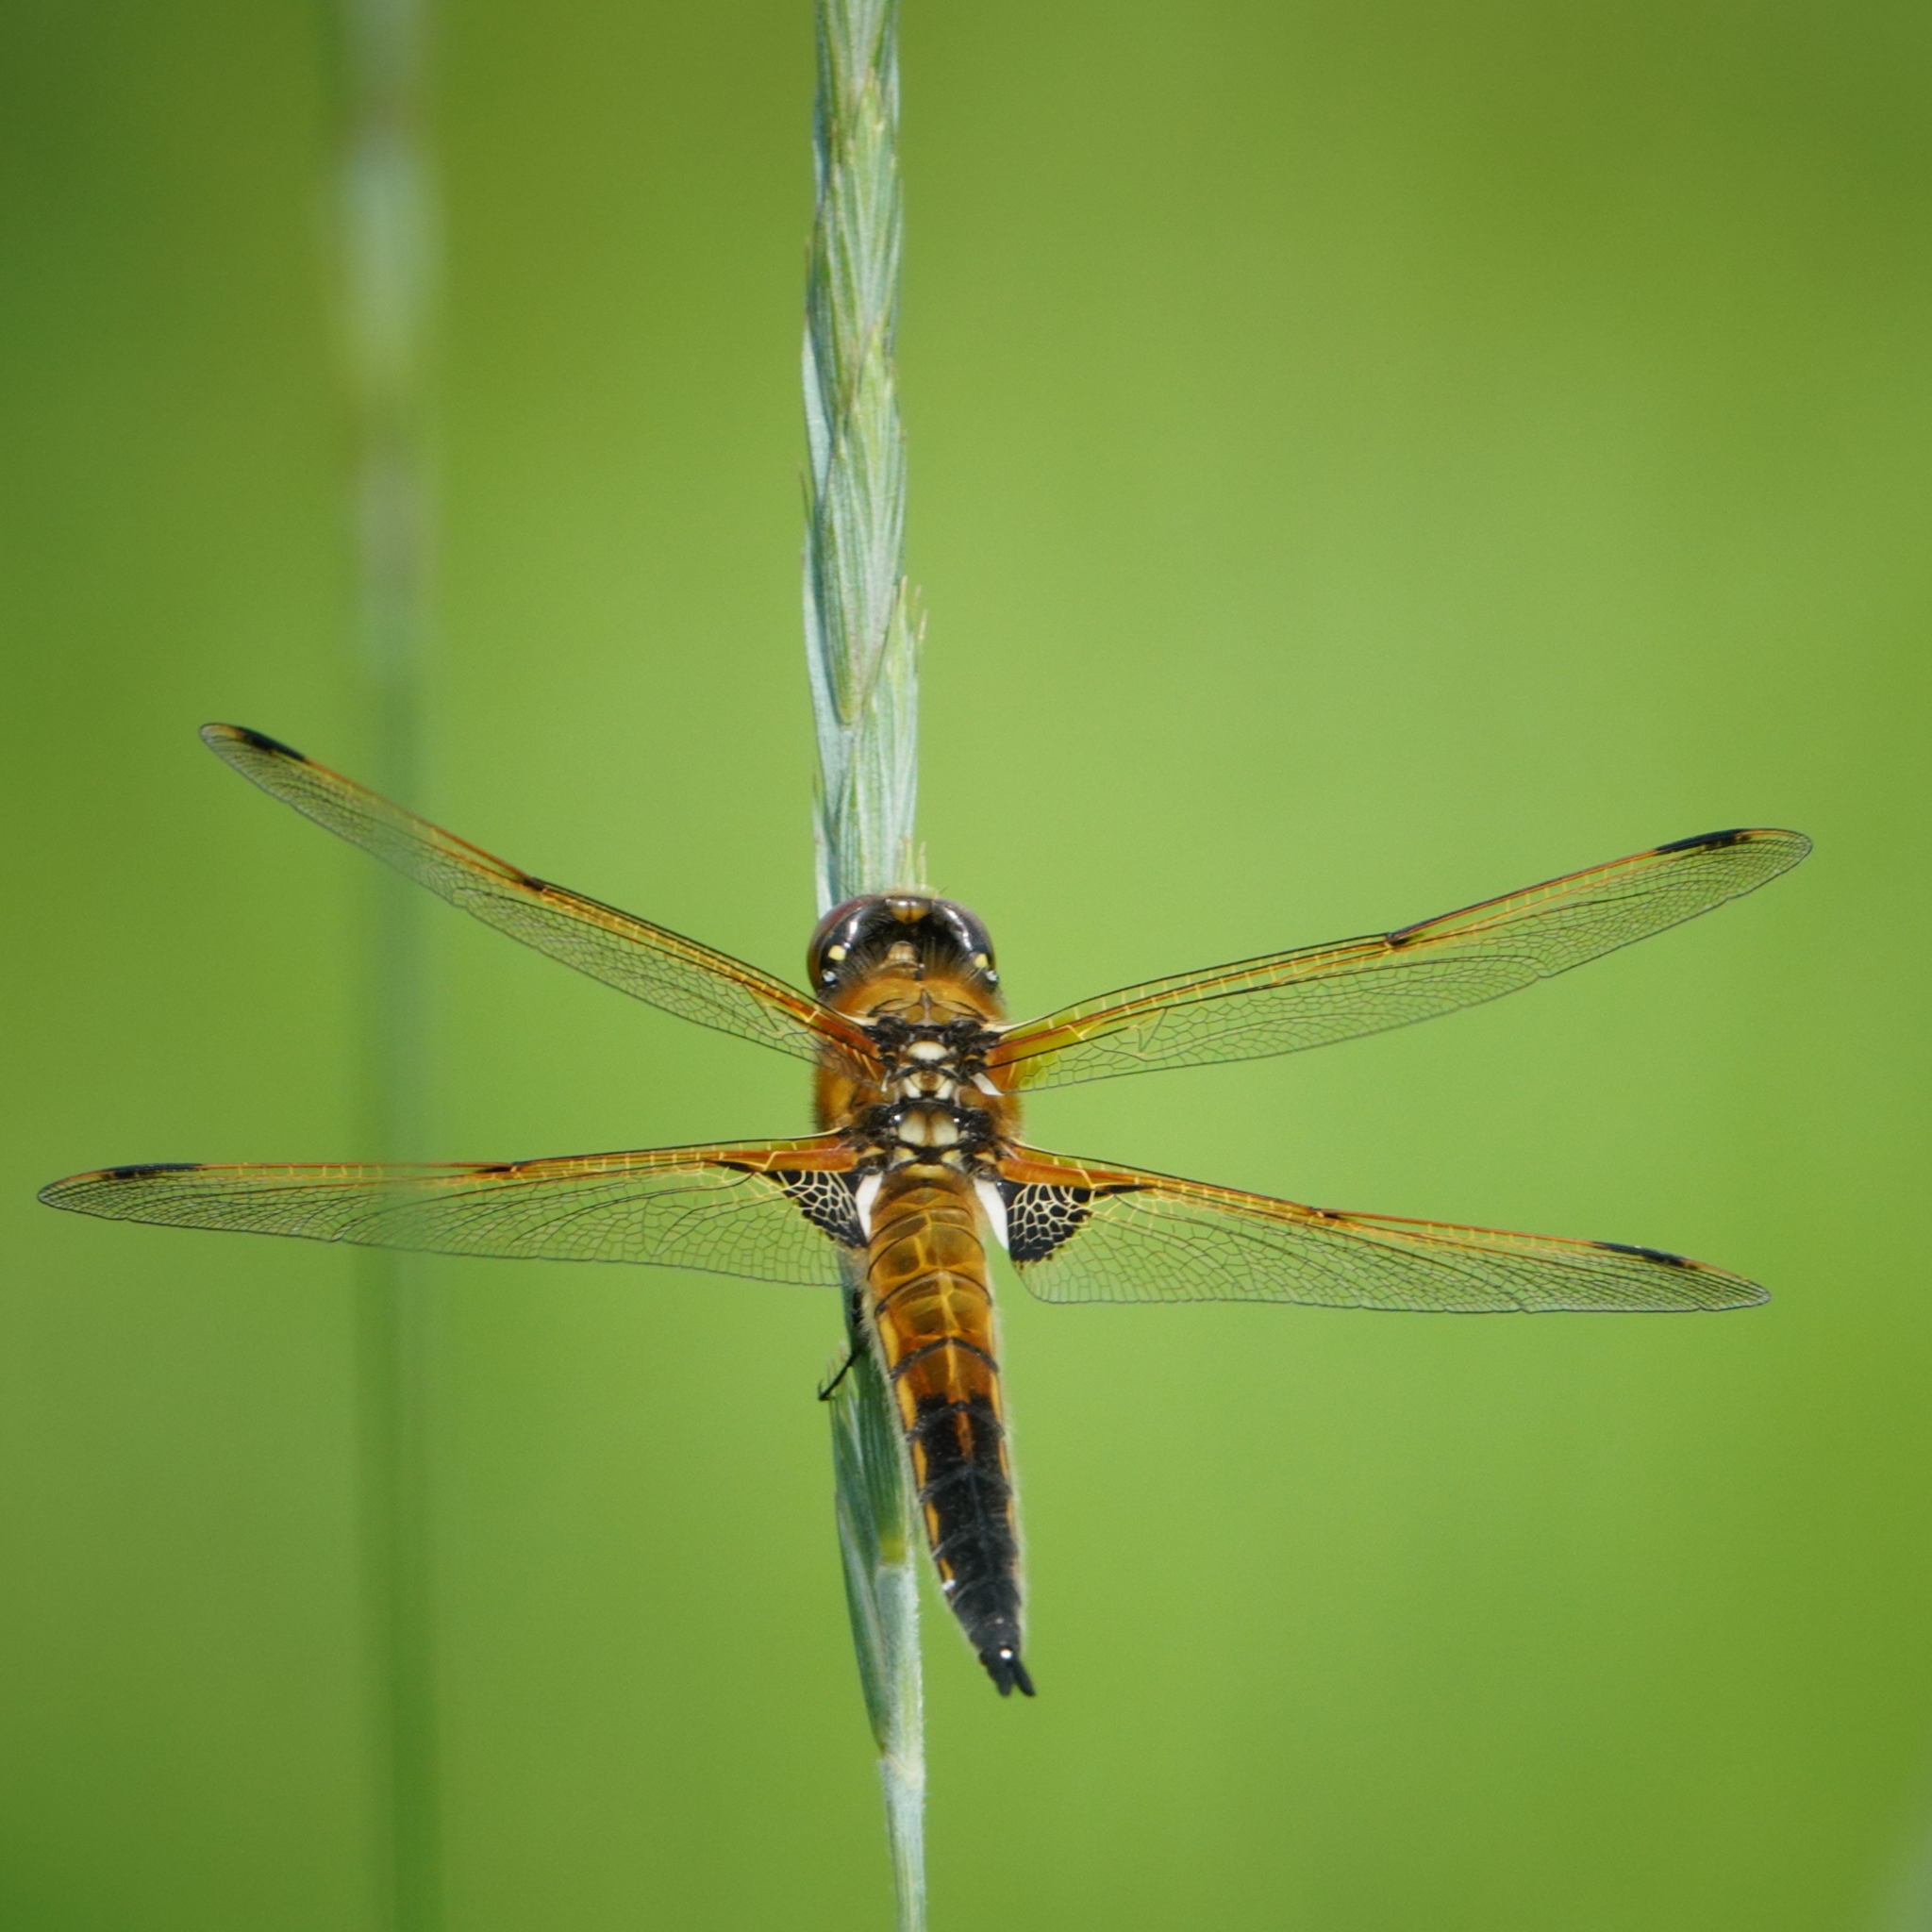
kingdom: Animalia
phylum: Arthropoda
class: Insecta
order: Odonata
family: Libellulidae
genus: Libellula
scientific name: Libellula quadrimaculata
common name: Four-spotted chaser
